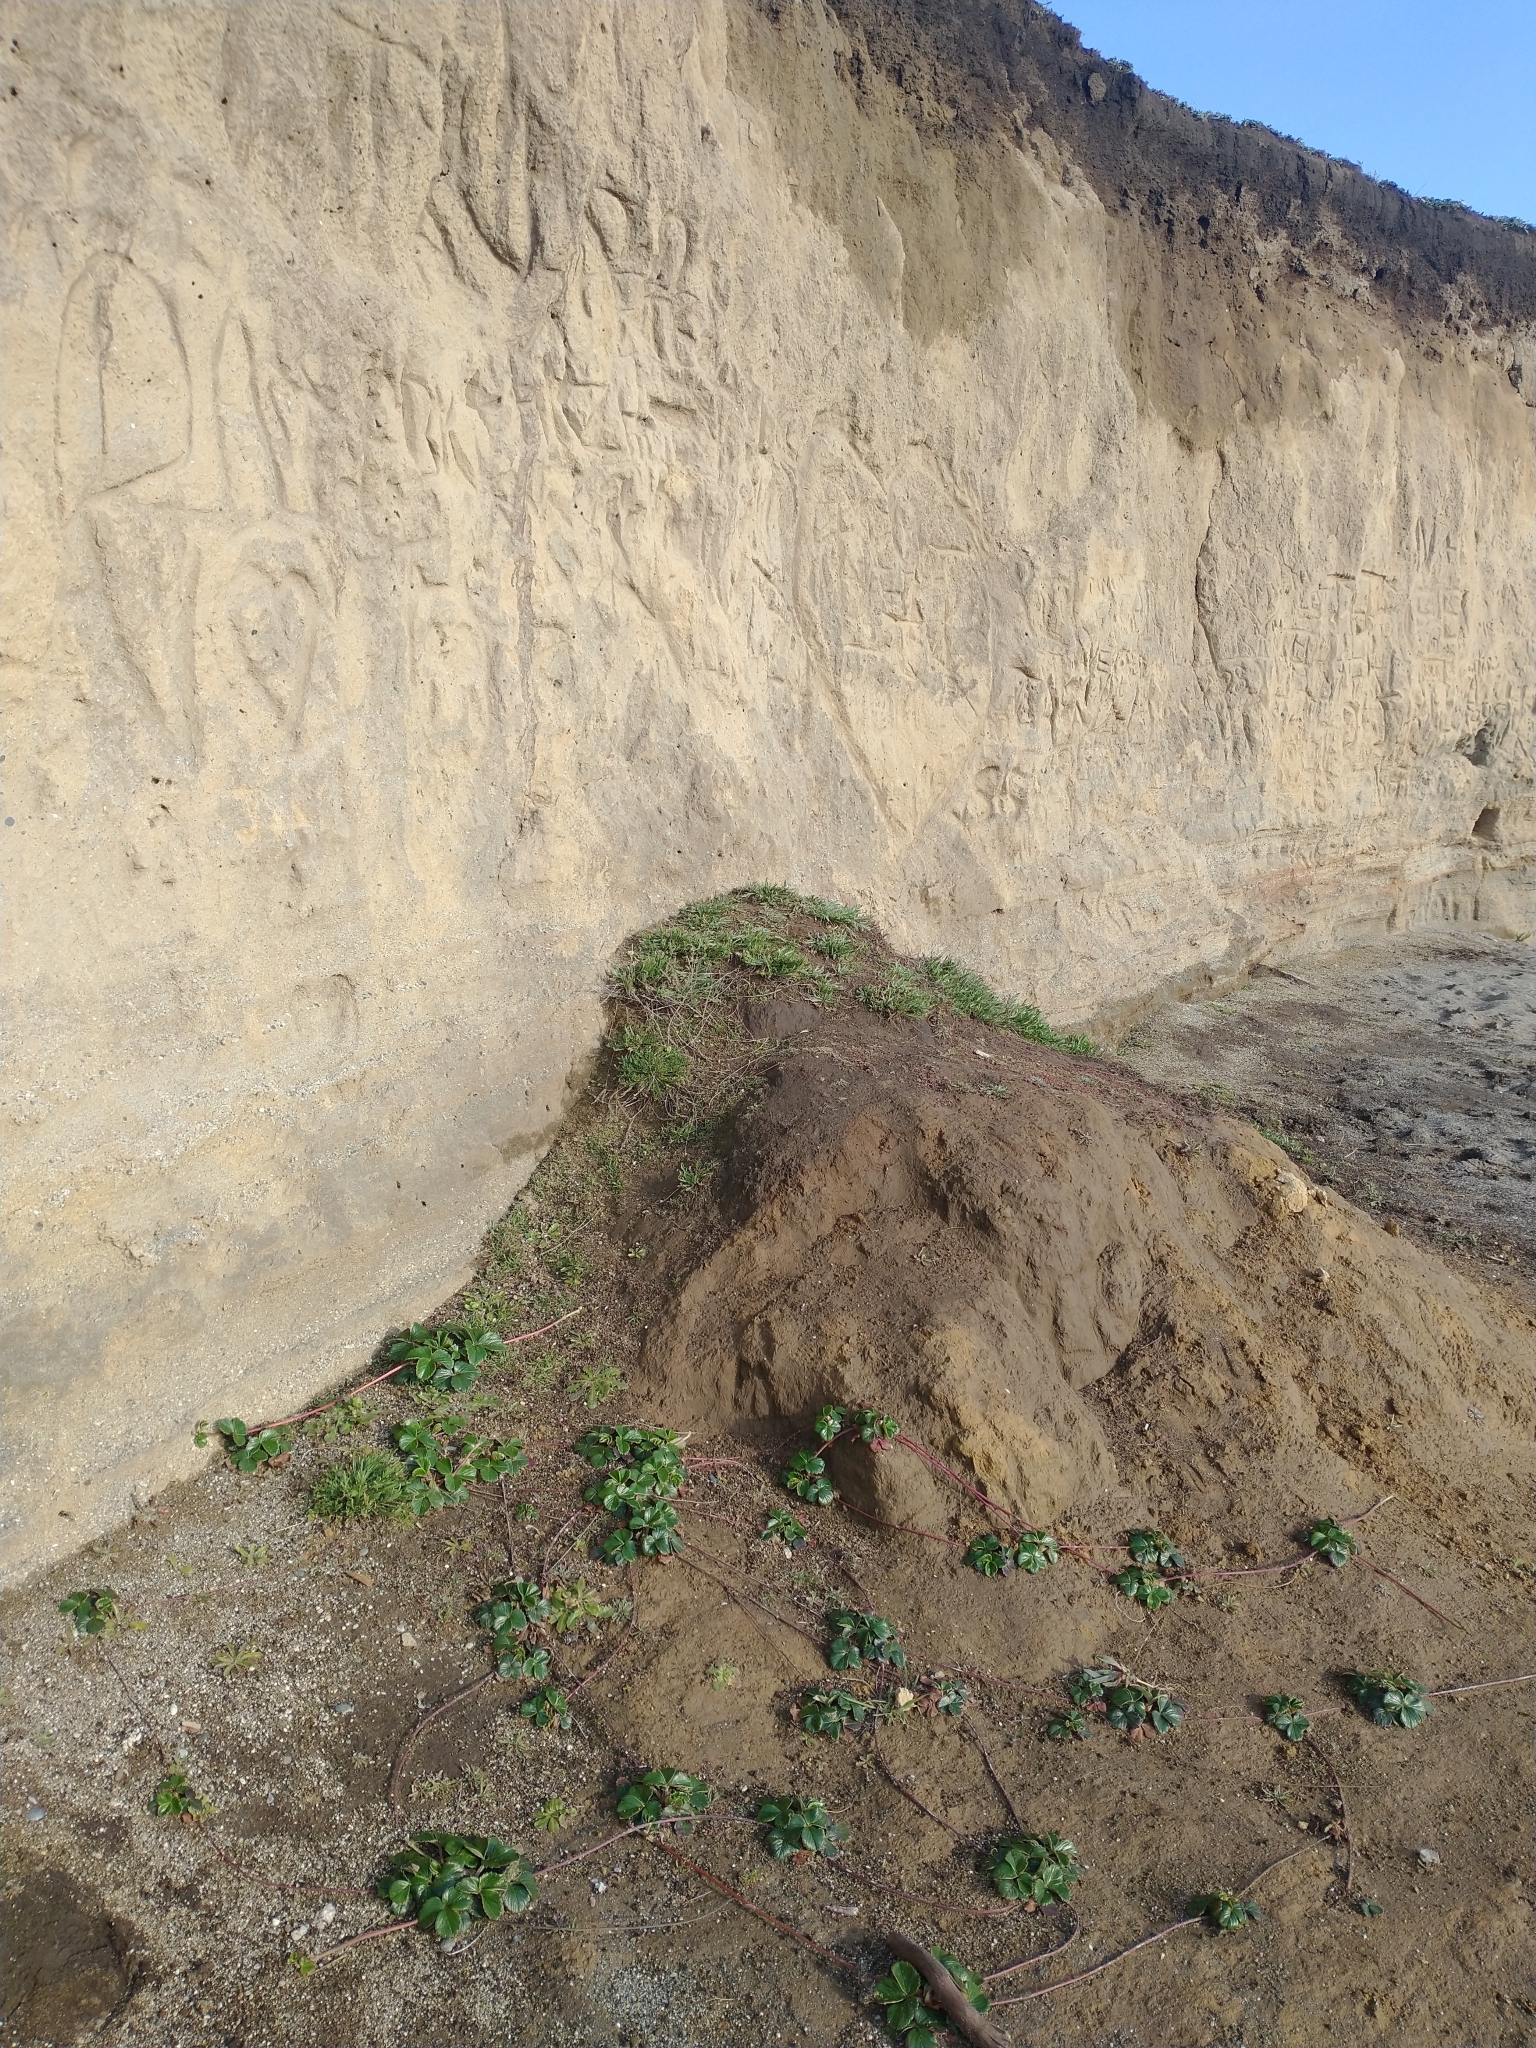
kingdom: Plantae
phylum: Tracheophyta
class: Magnoliopsida
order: Rosales
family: Rosaceae
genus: Fragaria
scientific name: Fragaria chiloensis
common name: Beach strawberry
